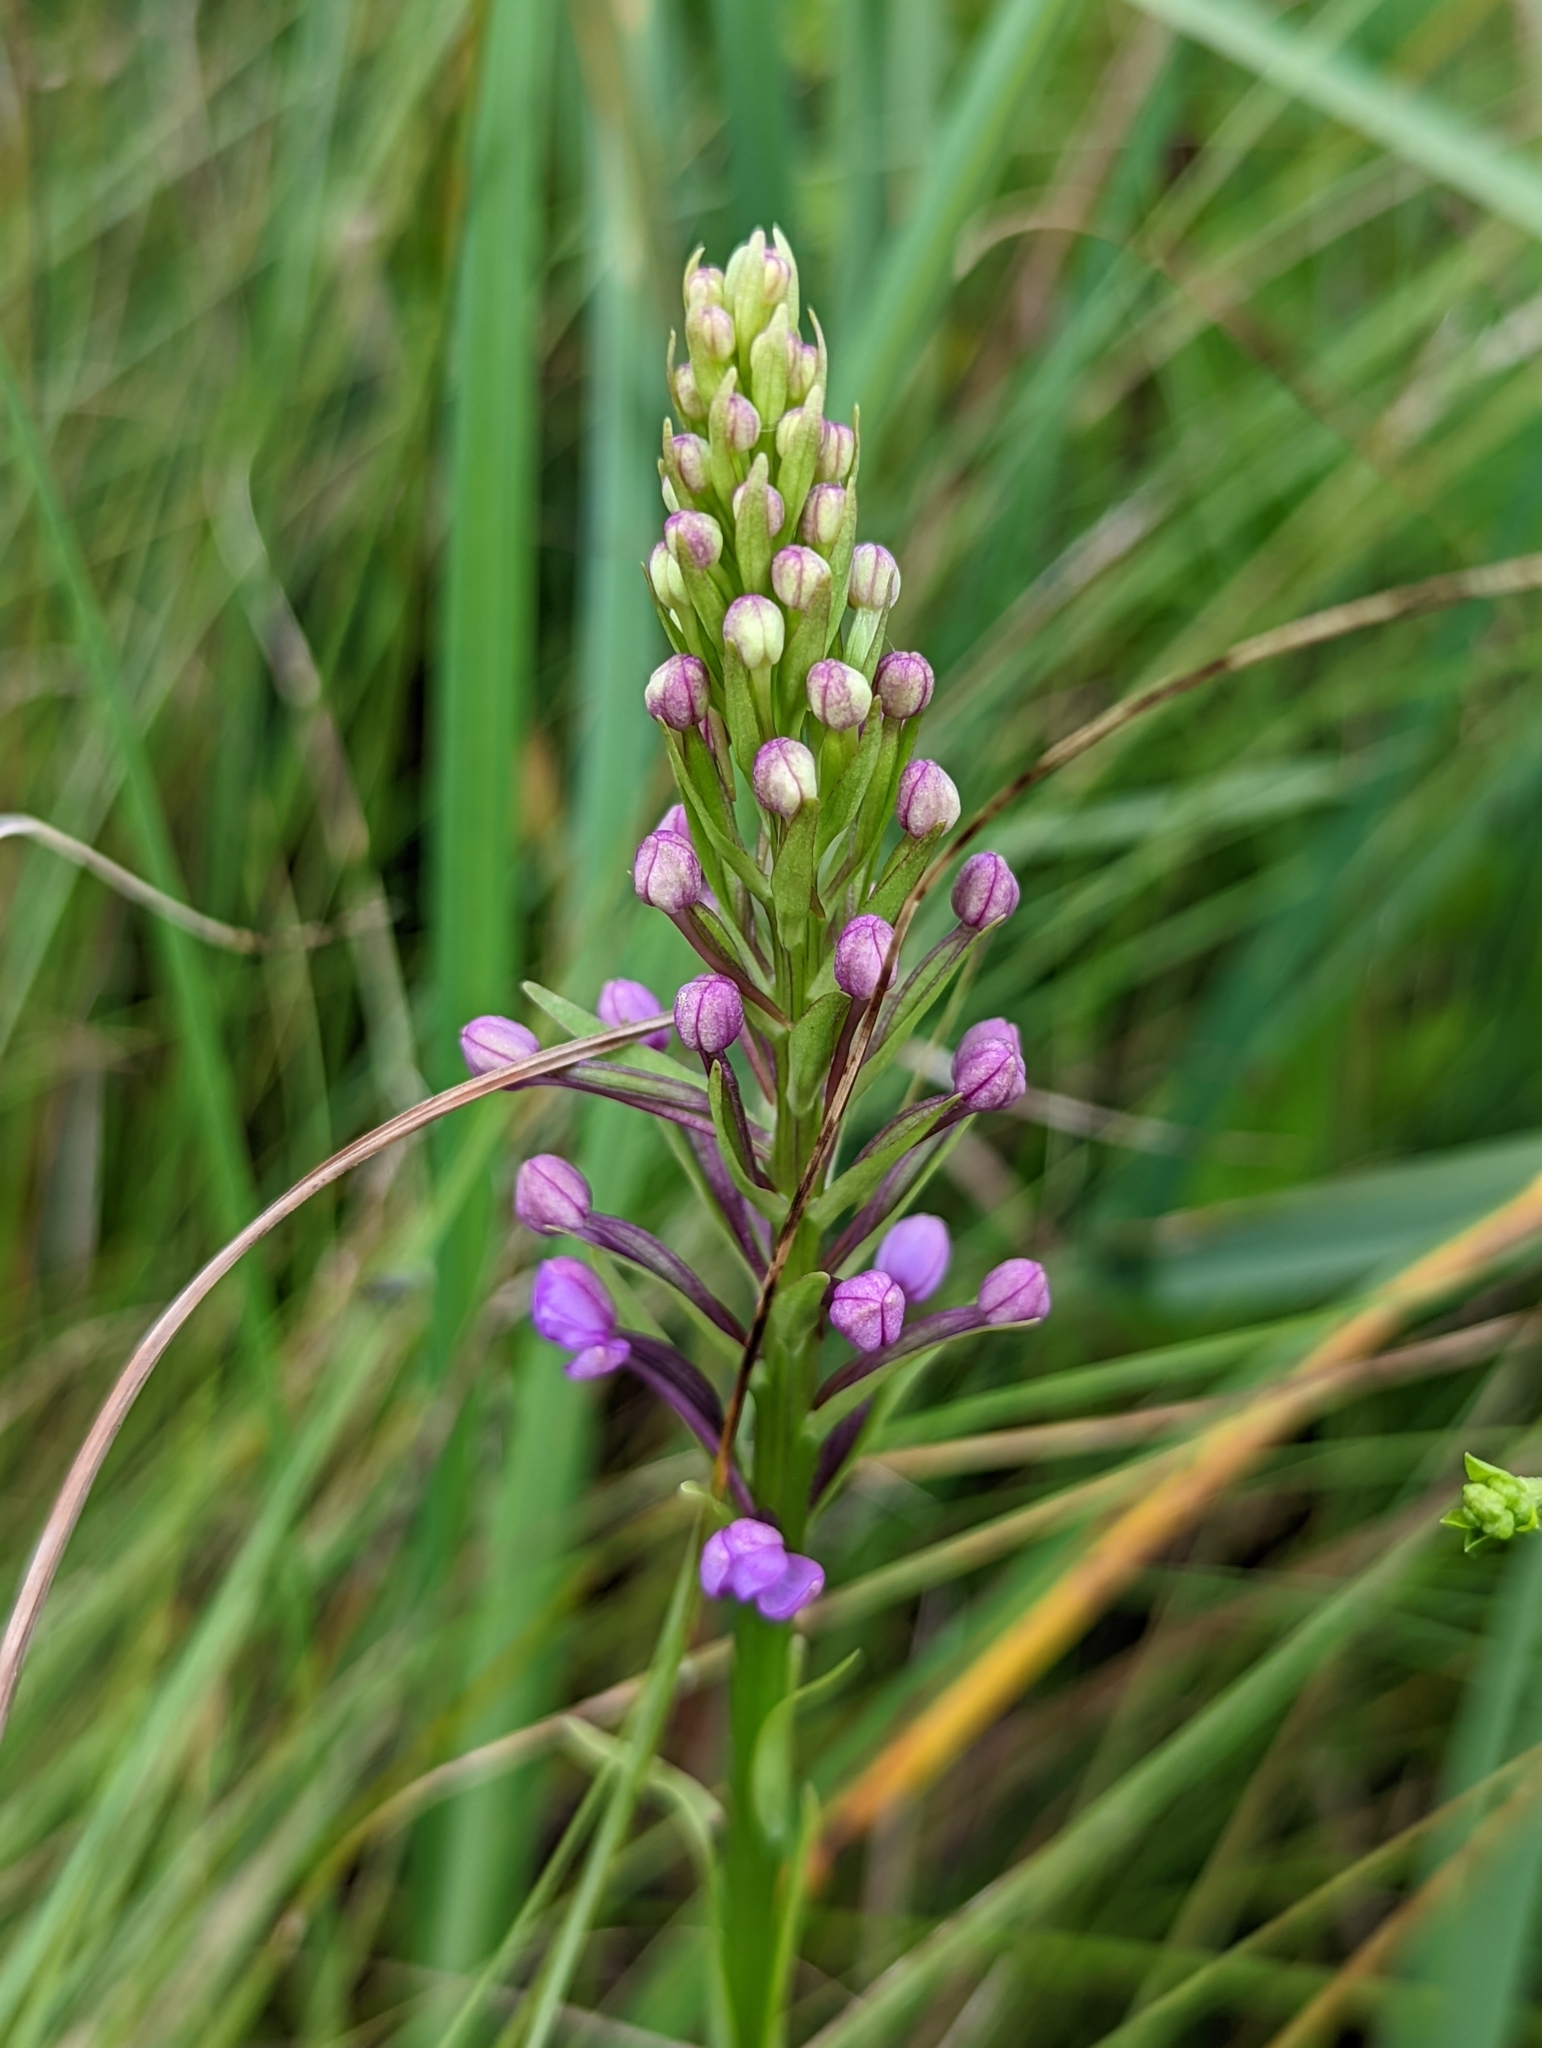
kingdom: Plantae
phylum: Tracheophyta
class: Liliopsida
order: Asparagales
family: Orchidaceae
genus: Platanthera
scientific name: Platanthera psycodes
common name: Lesser purple fringed orchid
